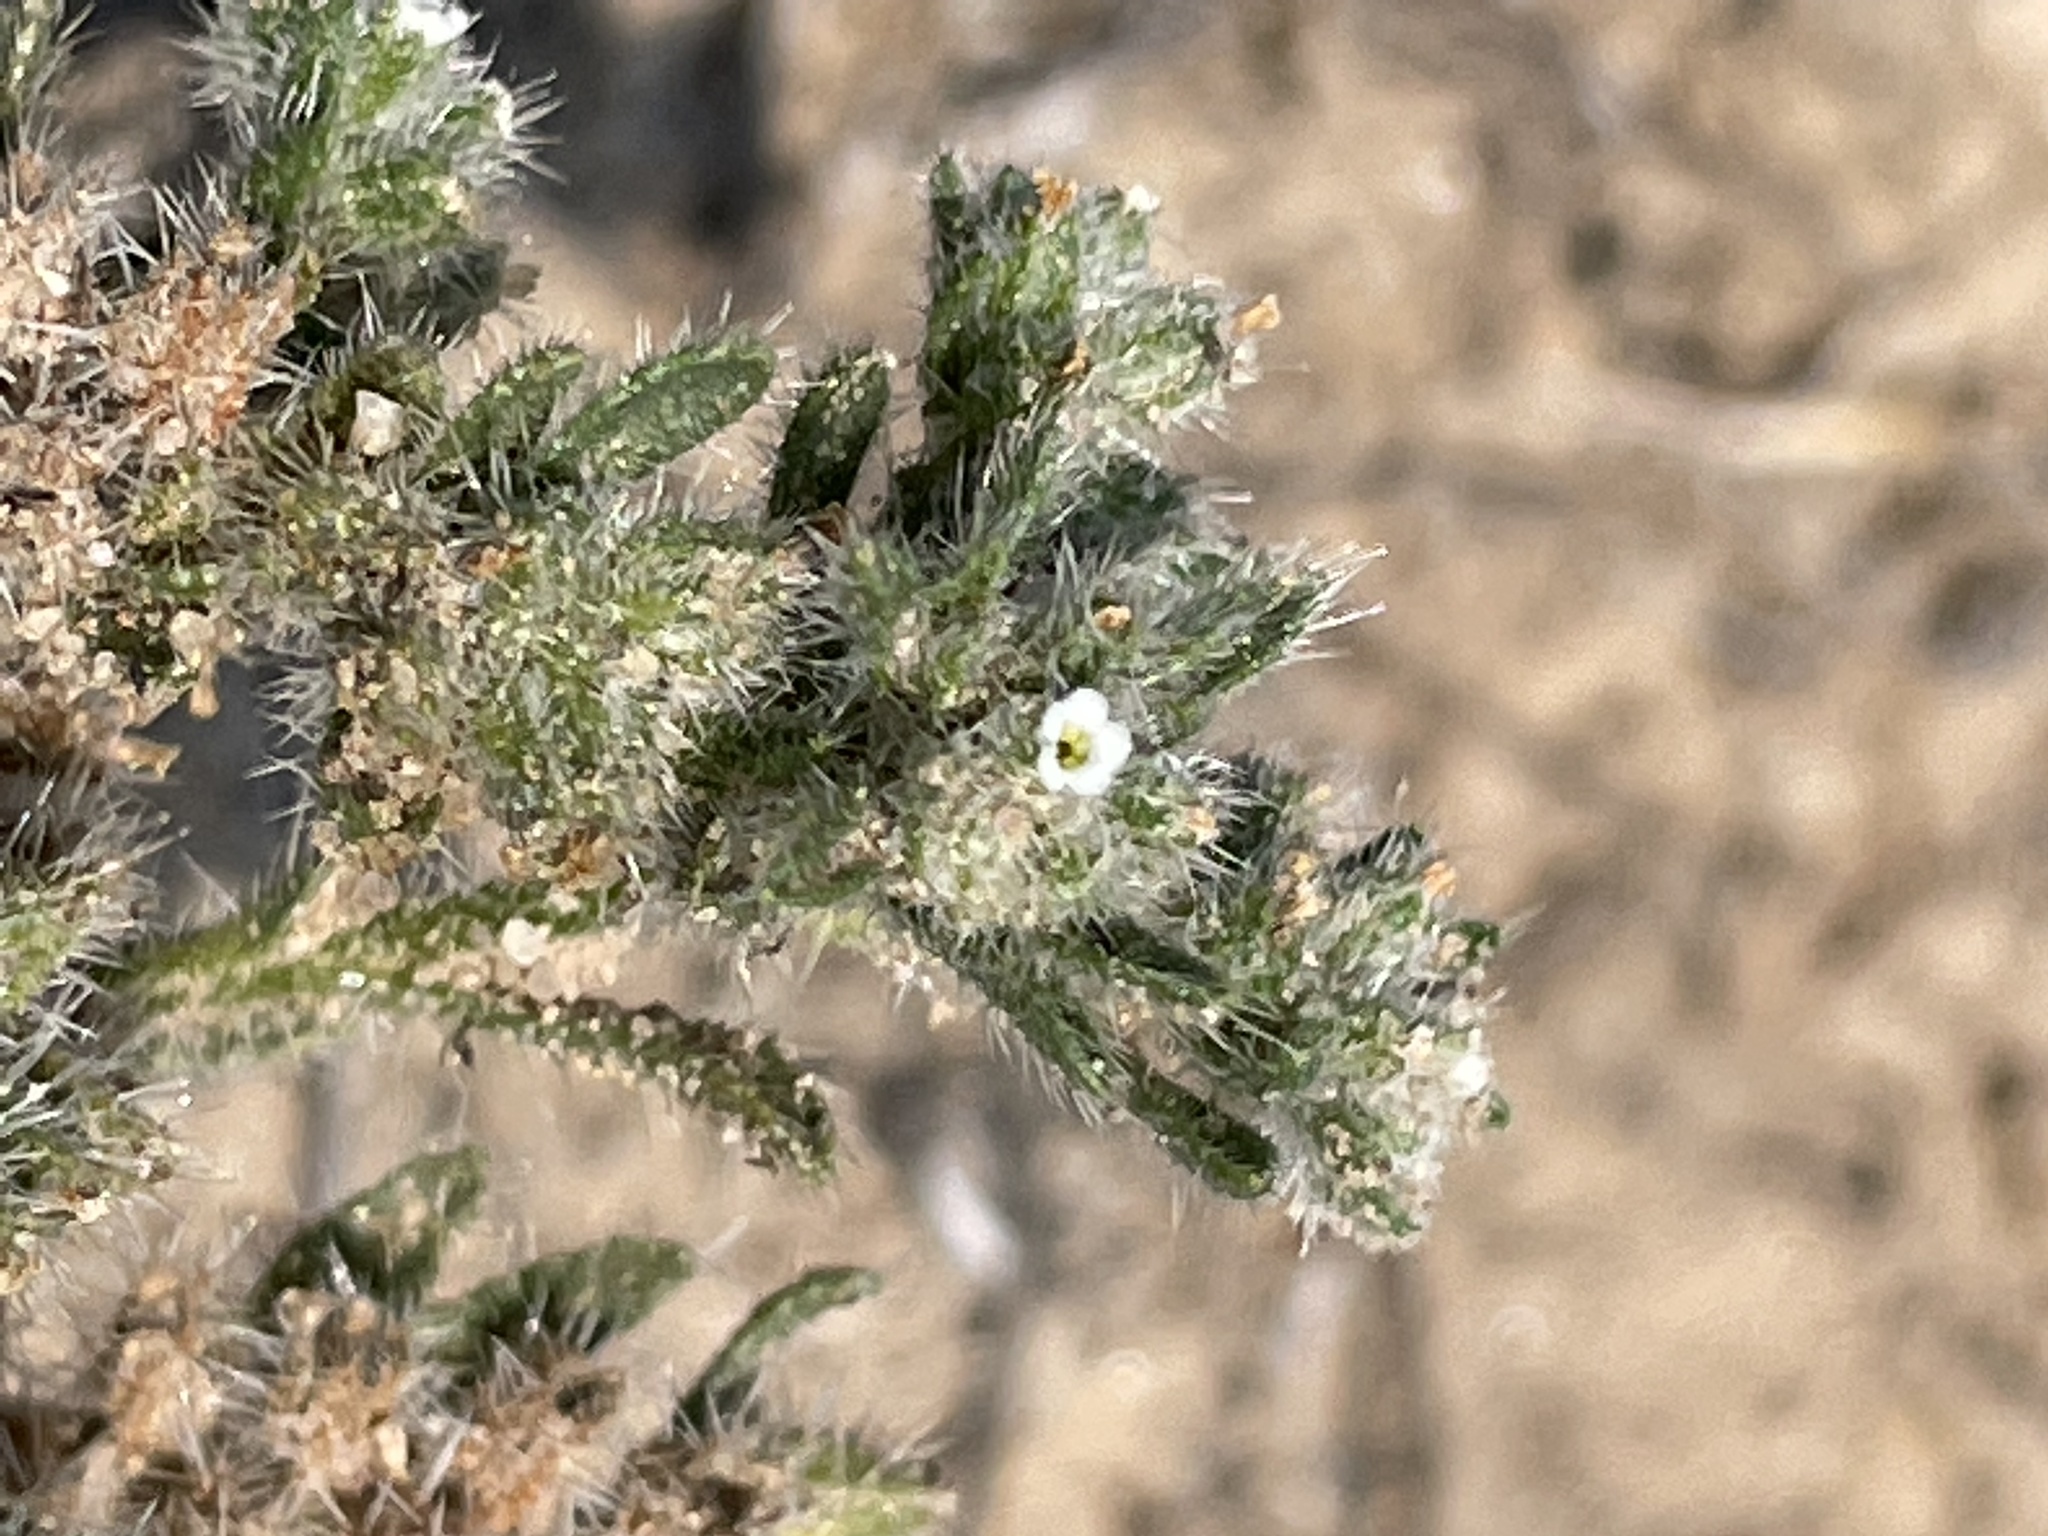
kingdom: Plantae
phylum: Tracheophyta
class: Magnoliopsida
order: Boraginales
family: Boraginaceae
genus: Cryptantha
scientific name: Cryptantha minima
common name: Little cat's-eye
